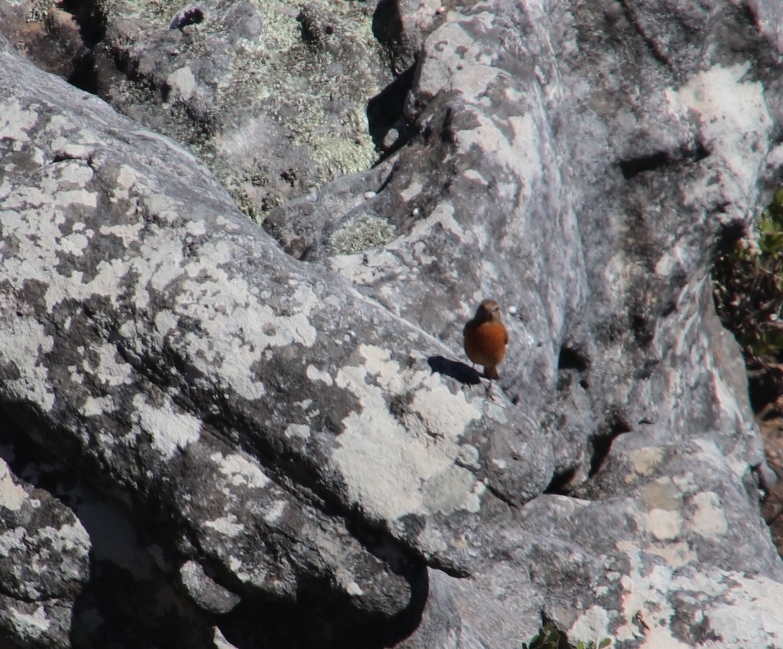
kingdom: Animalia
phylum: Chordata
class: Aves
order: Passeriformes
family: Muscicapidae
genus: Monticola
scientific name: Monticola rupestris
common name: Cape rock thrush
